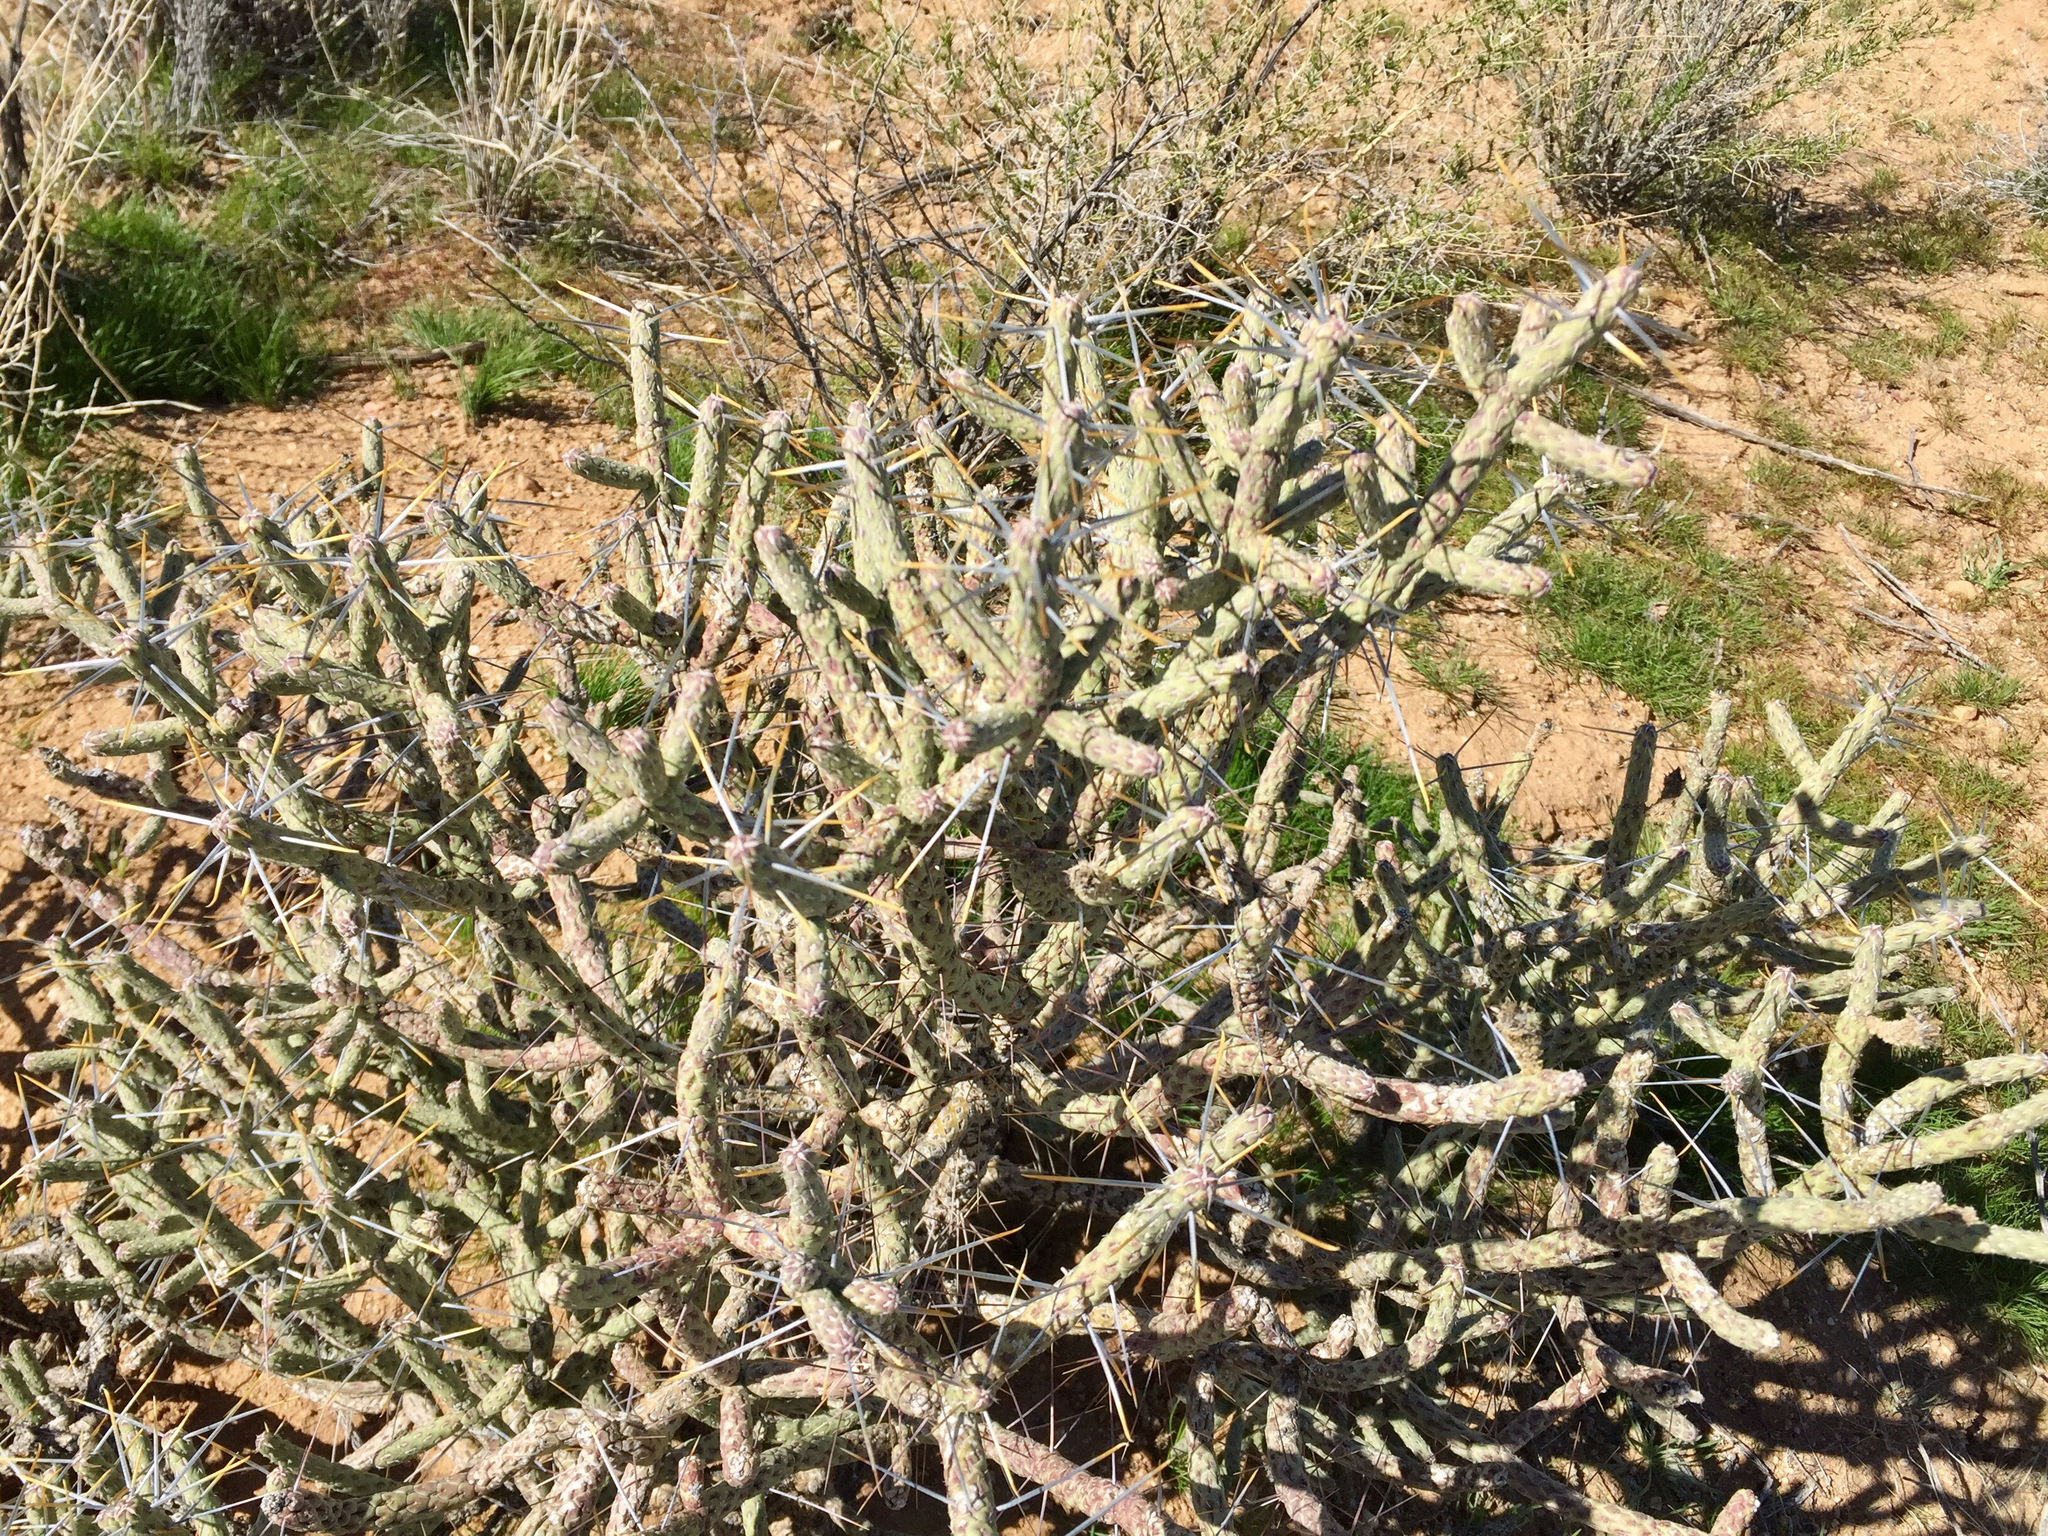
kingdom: Plantae
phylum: Tracheophyta
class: Magnoliopsida
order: Caryophyllales
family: Cactaceae
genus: Cylindropuntia
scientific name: Cylindropuntia ramosissima
